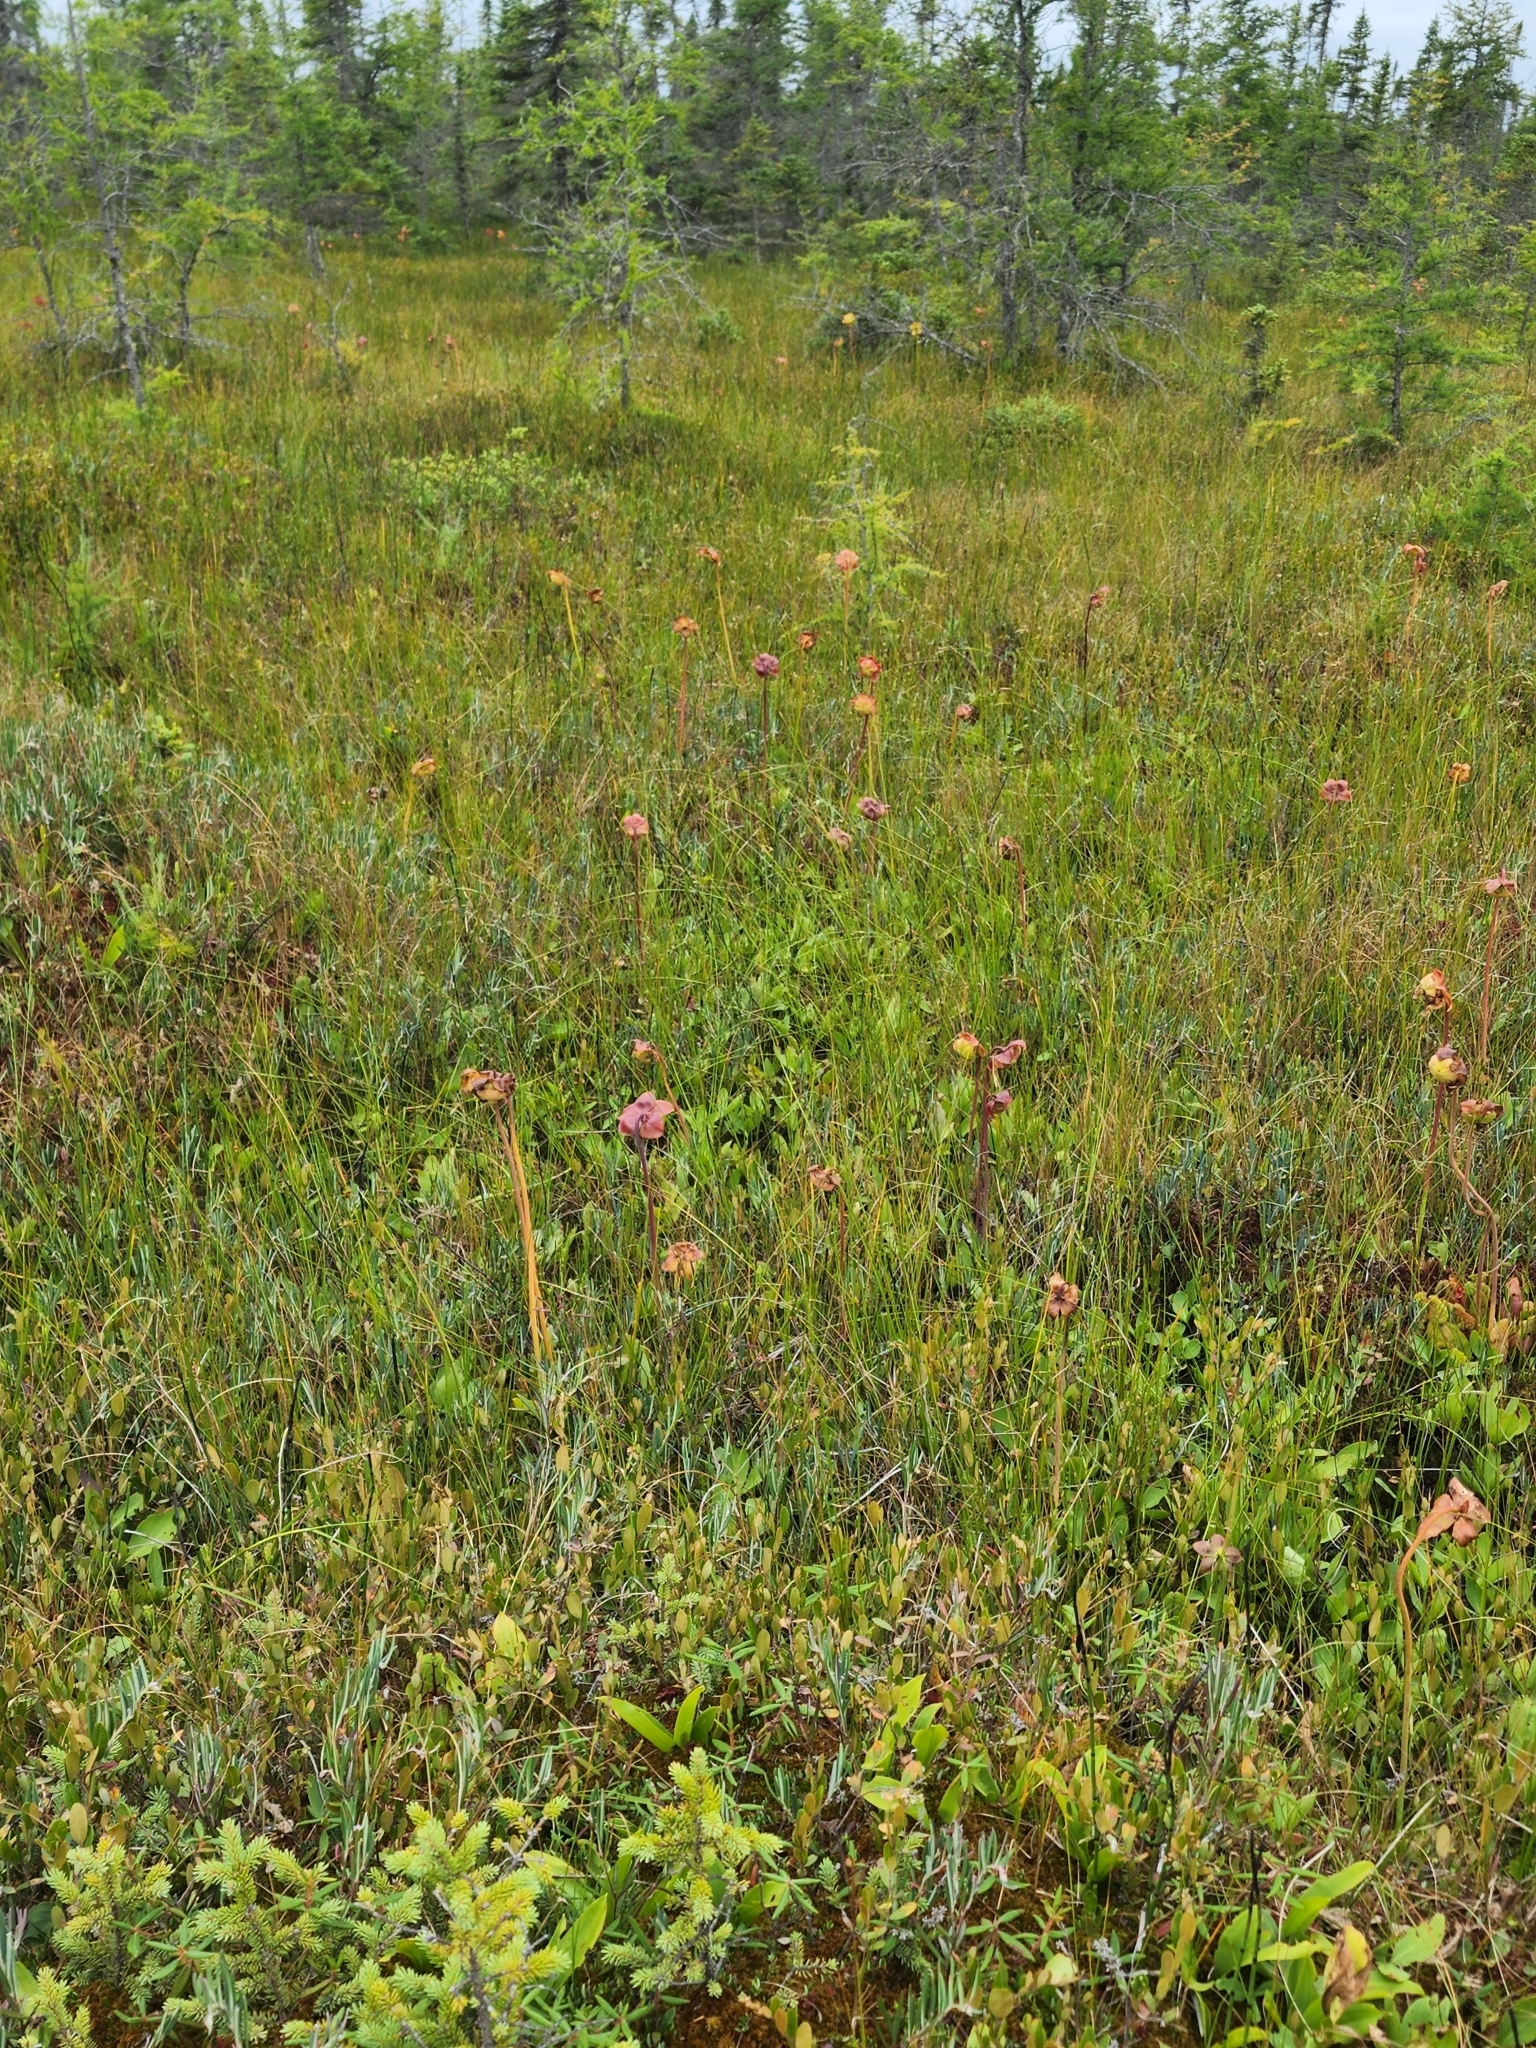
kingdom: Plantae
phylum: Tracheophyta
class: Magnoliopsida
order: Ericales
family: Sarraceniaceae
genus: Sarracenia
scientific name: Sarracenia purpurea
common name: Pitcherplant
